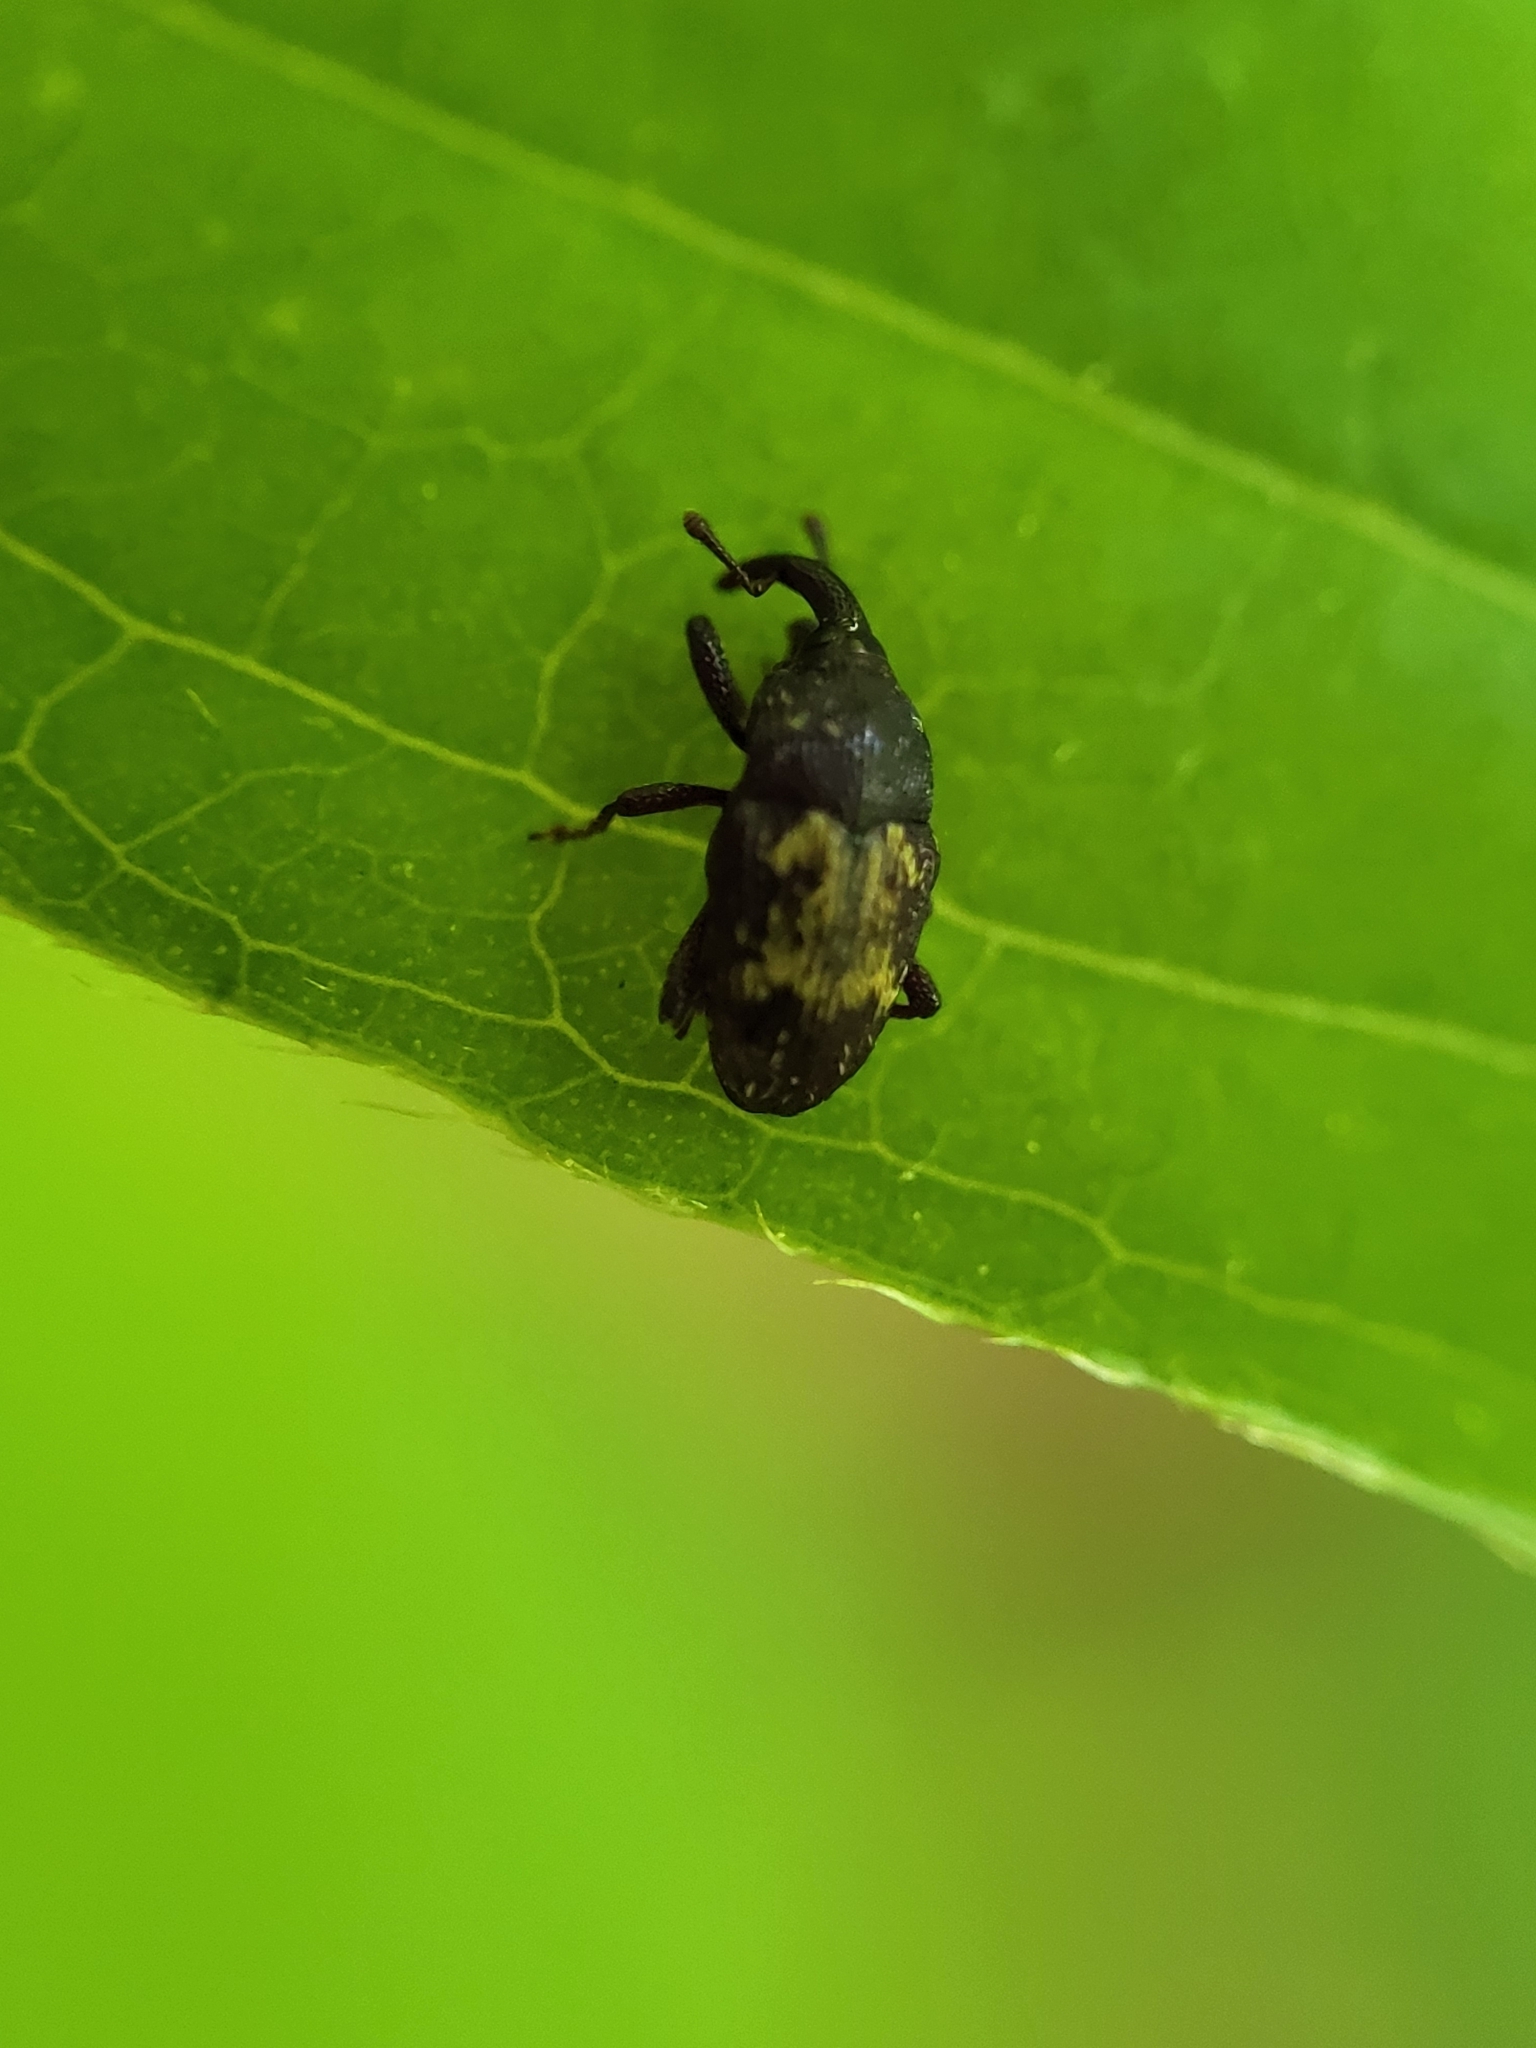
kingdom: Animalia
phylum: Arthropoda
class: Insecta
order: Coleoptera
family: Curculionidae
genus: Glyptobaris
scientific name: Glyptobaris lecontei
